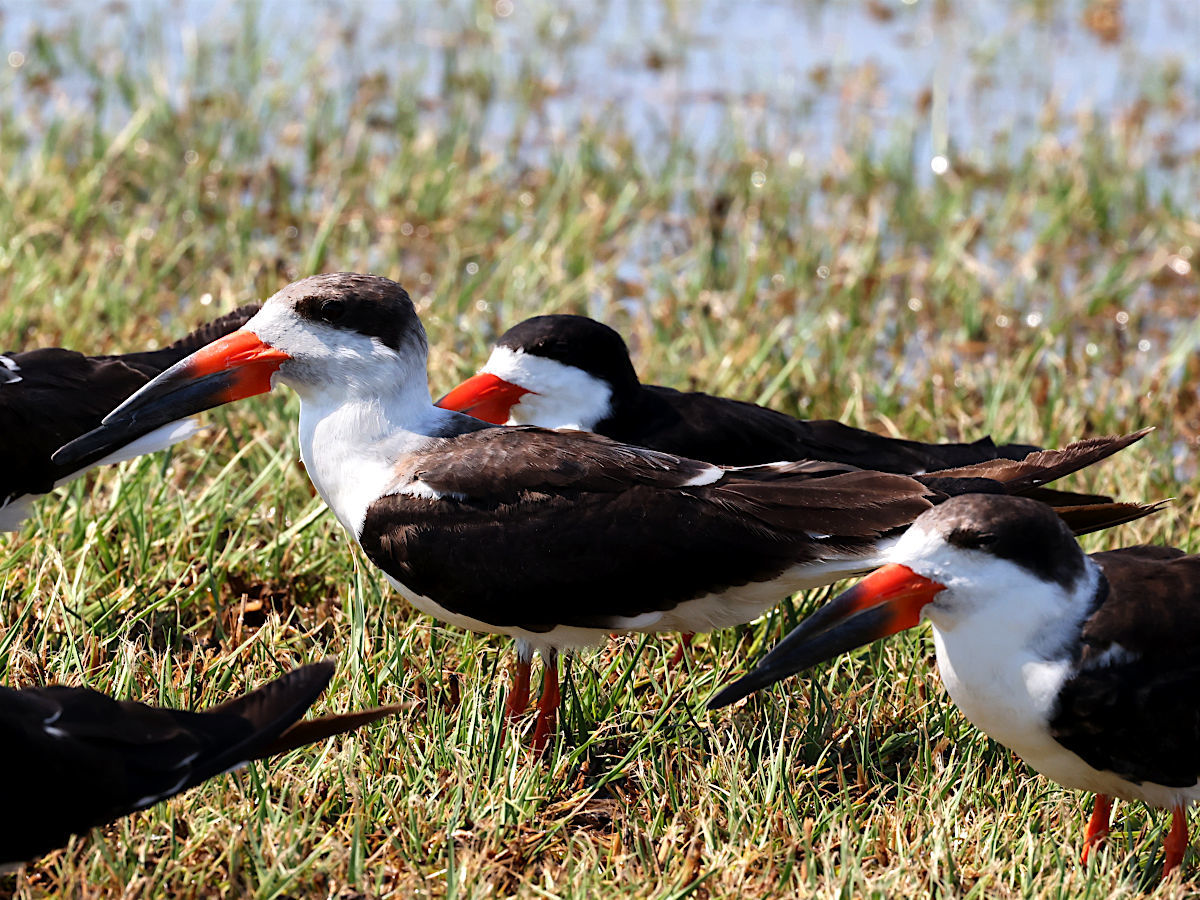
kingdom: Animalia
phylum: Chordata
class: Aves
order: Charadriiformes
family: Laridae
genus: Rynchops
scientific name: Rynchops niger
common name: Black skimmer
